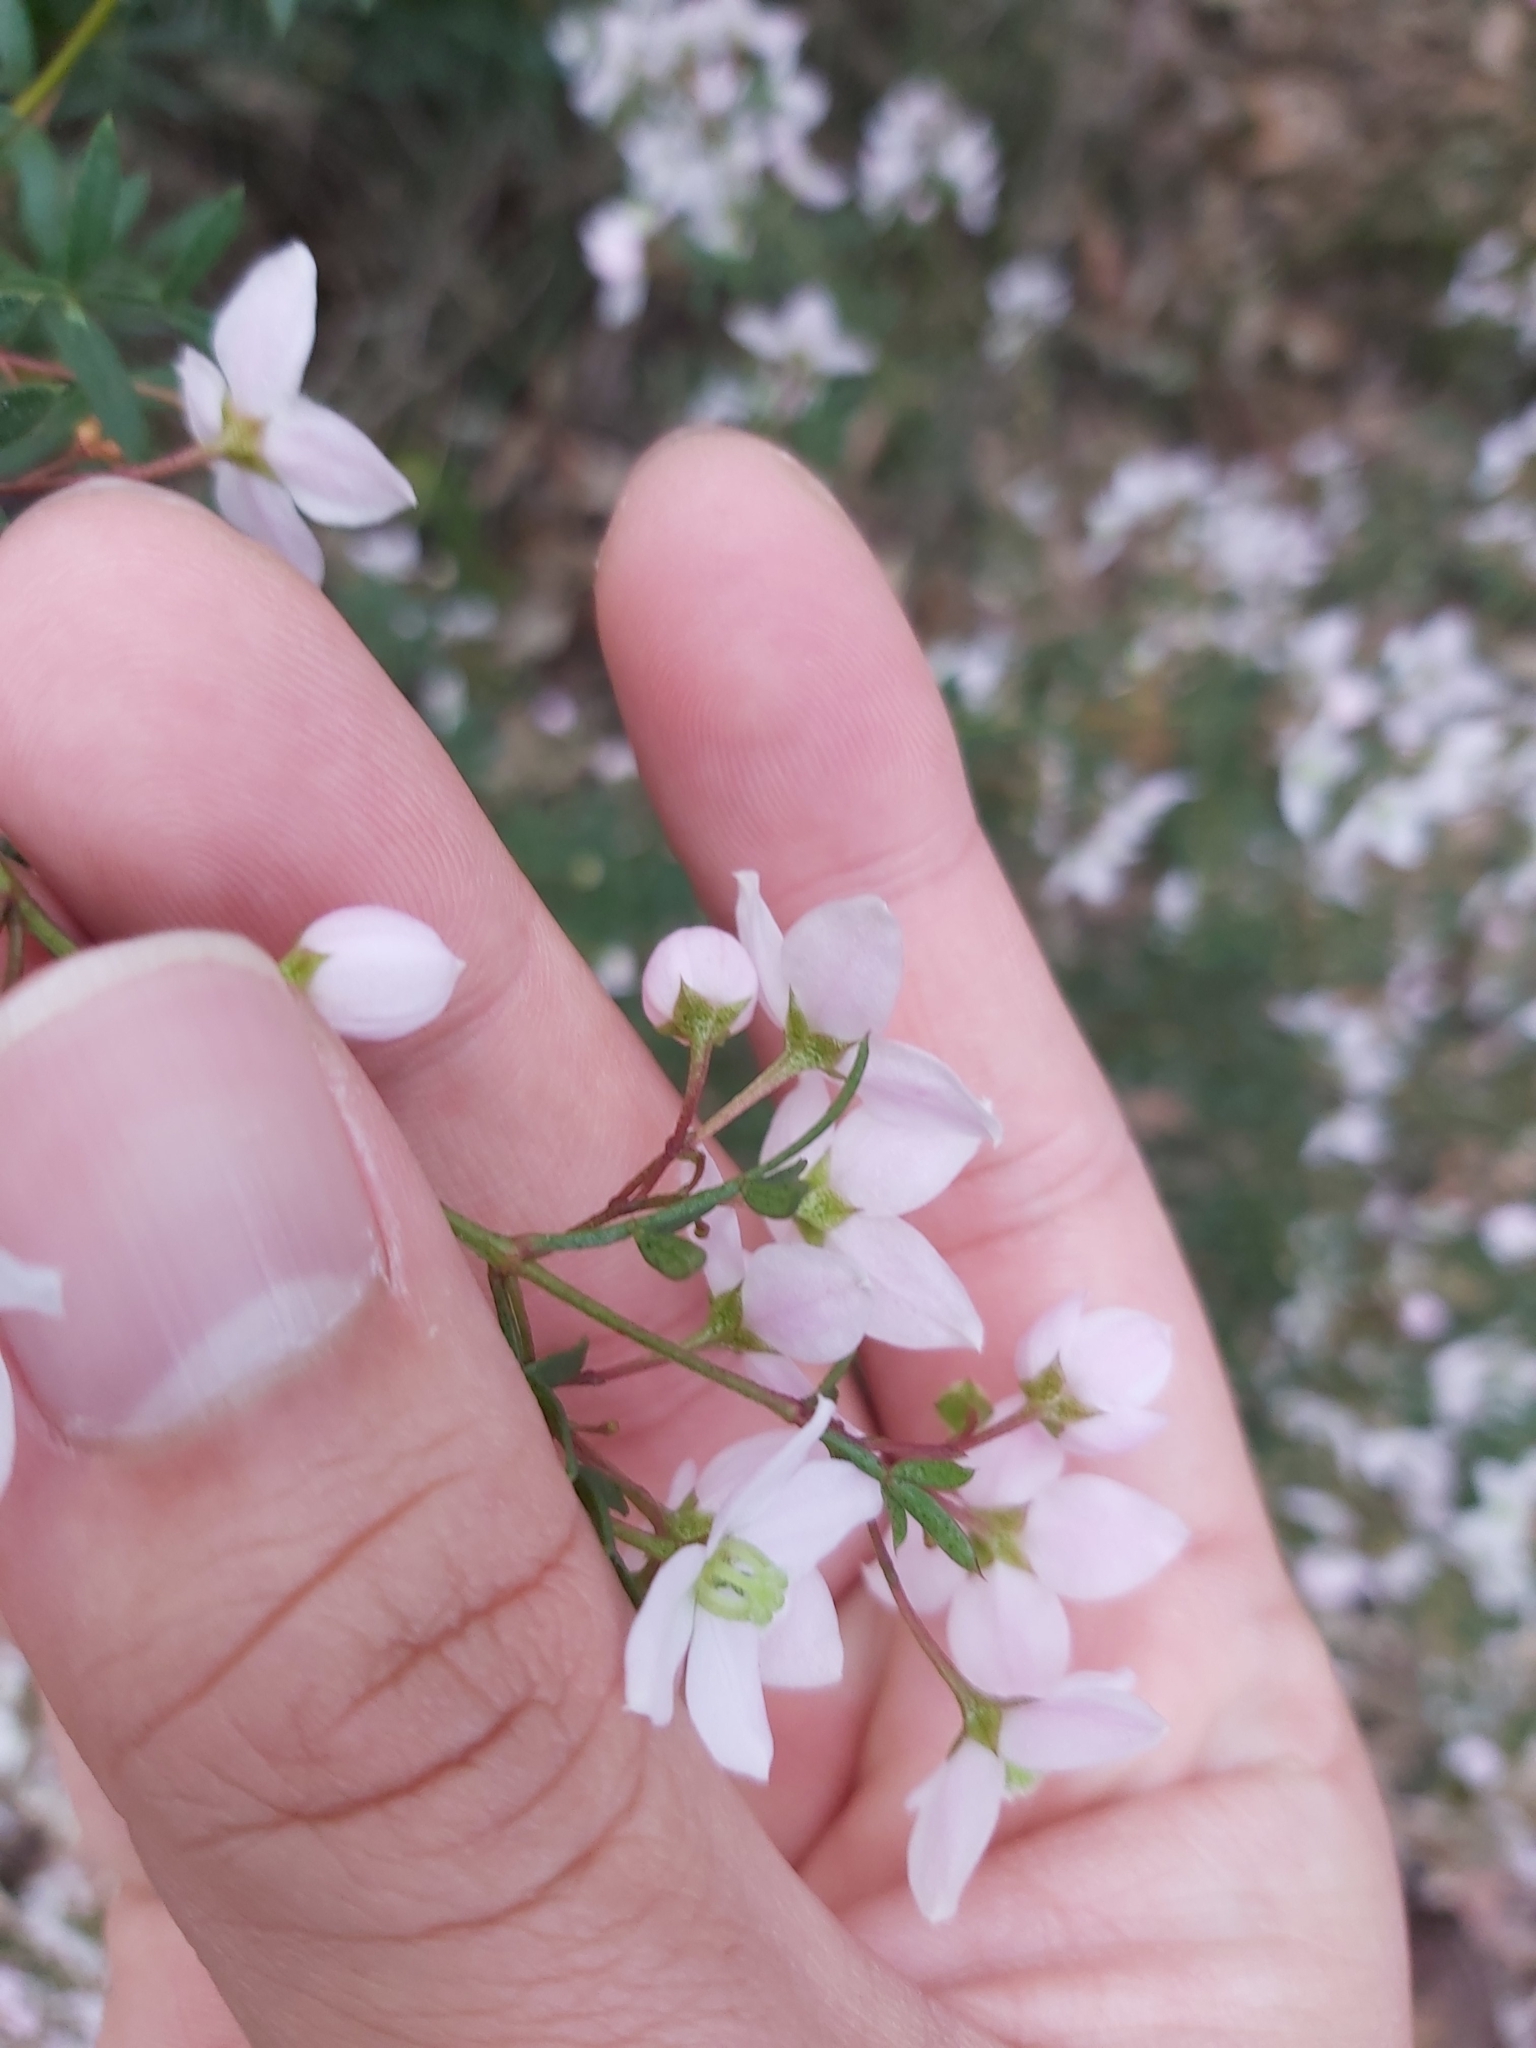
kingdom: Plantae
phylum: Tracheophyta
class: Magnoliopsida
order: Sapindales
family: Rutaceae
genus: Boronia
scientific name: Boronia floribunda
